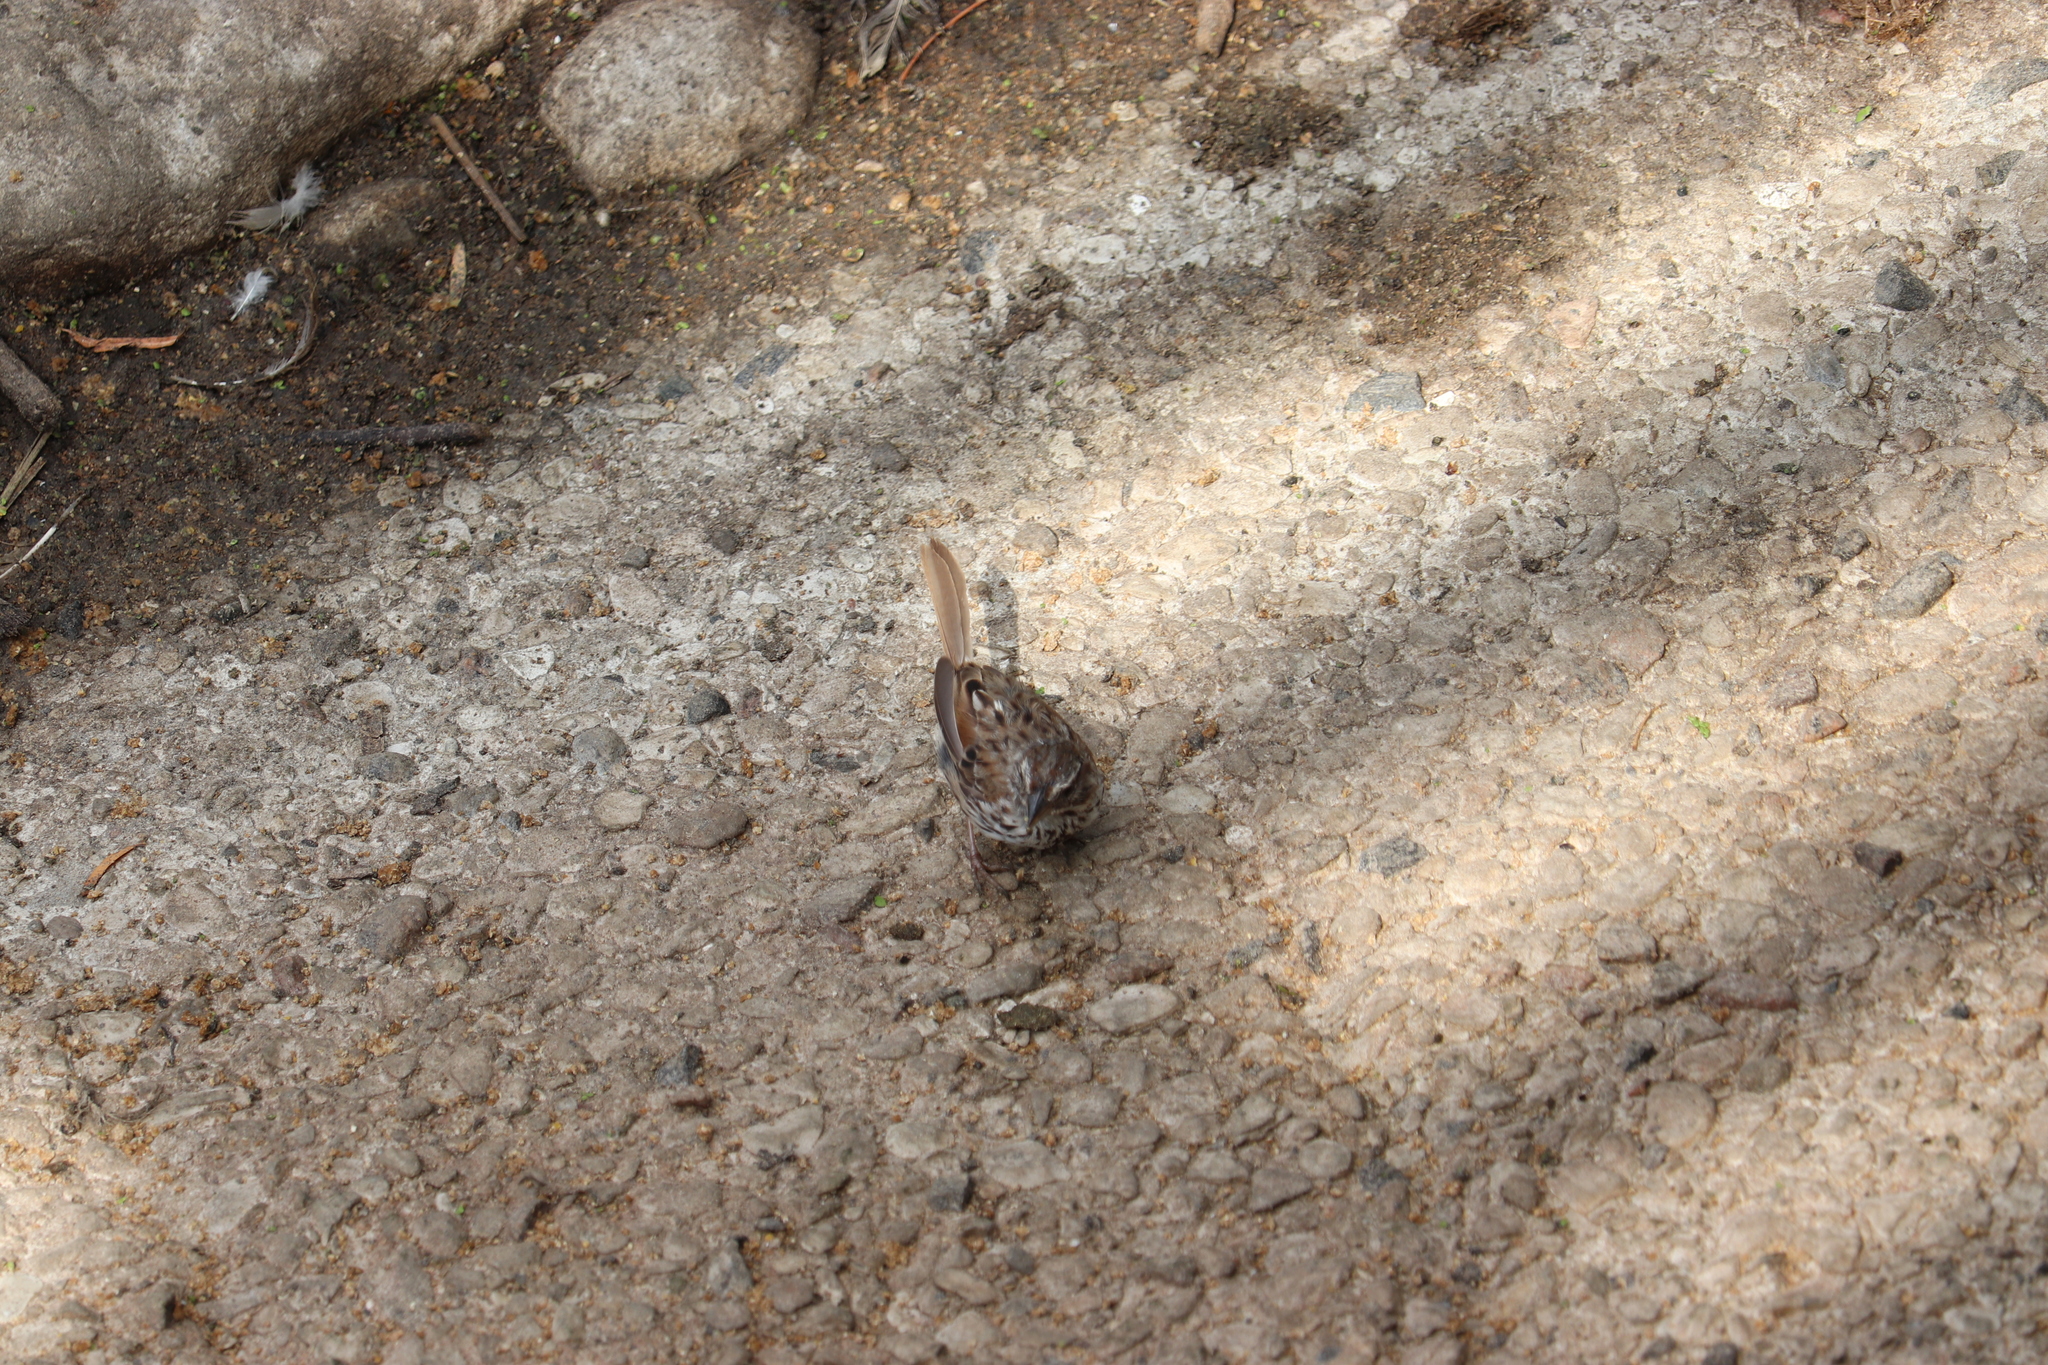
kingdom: Animalia
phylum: Chordata
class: Aves
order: Passeriformes
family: Passerellidae
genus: Melospiza
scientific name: Melospiza melodia
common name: Song sparrow
